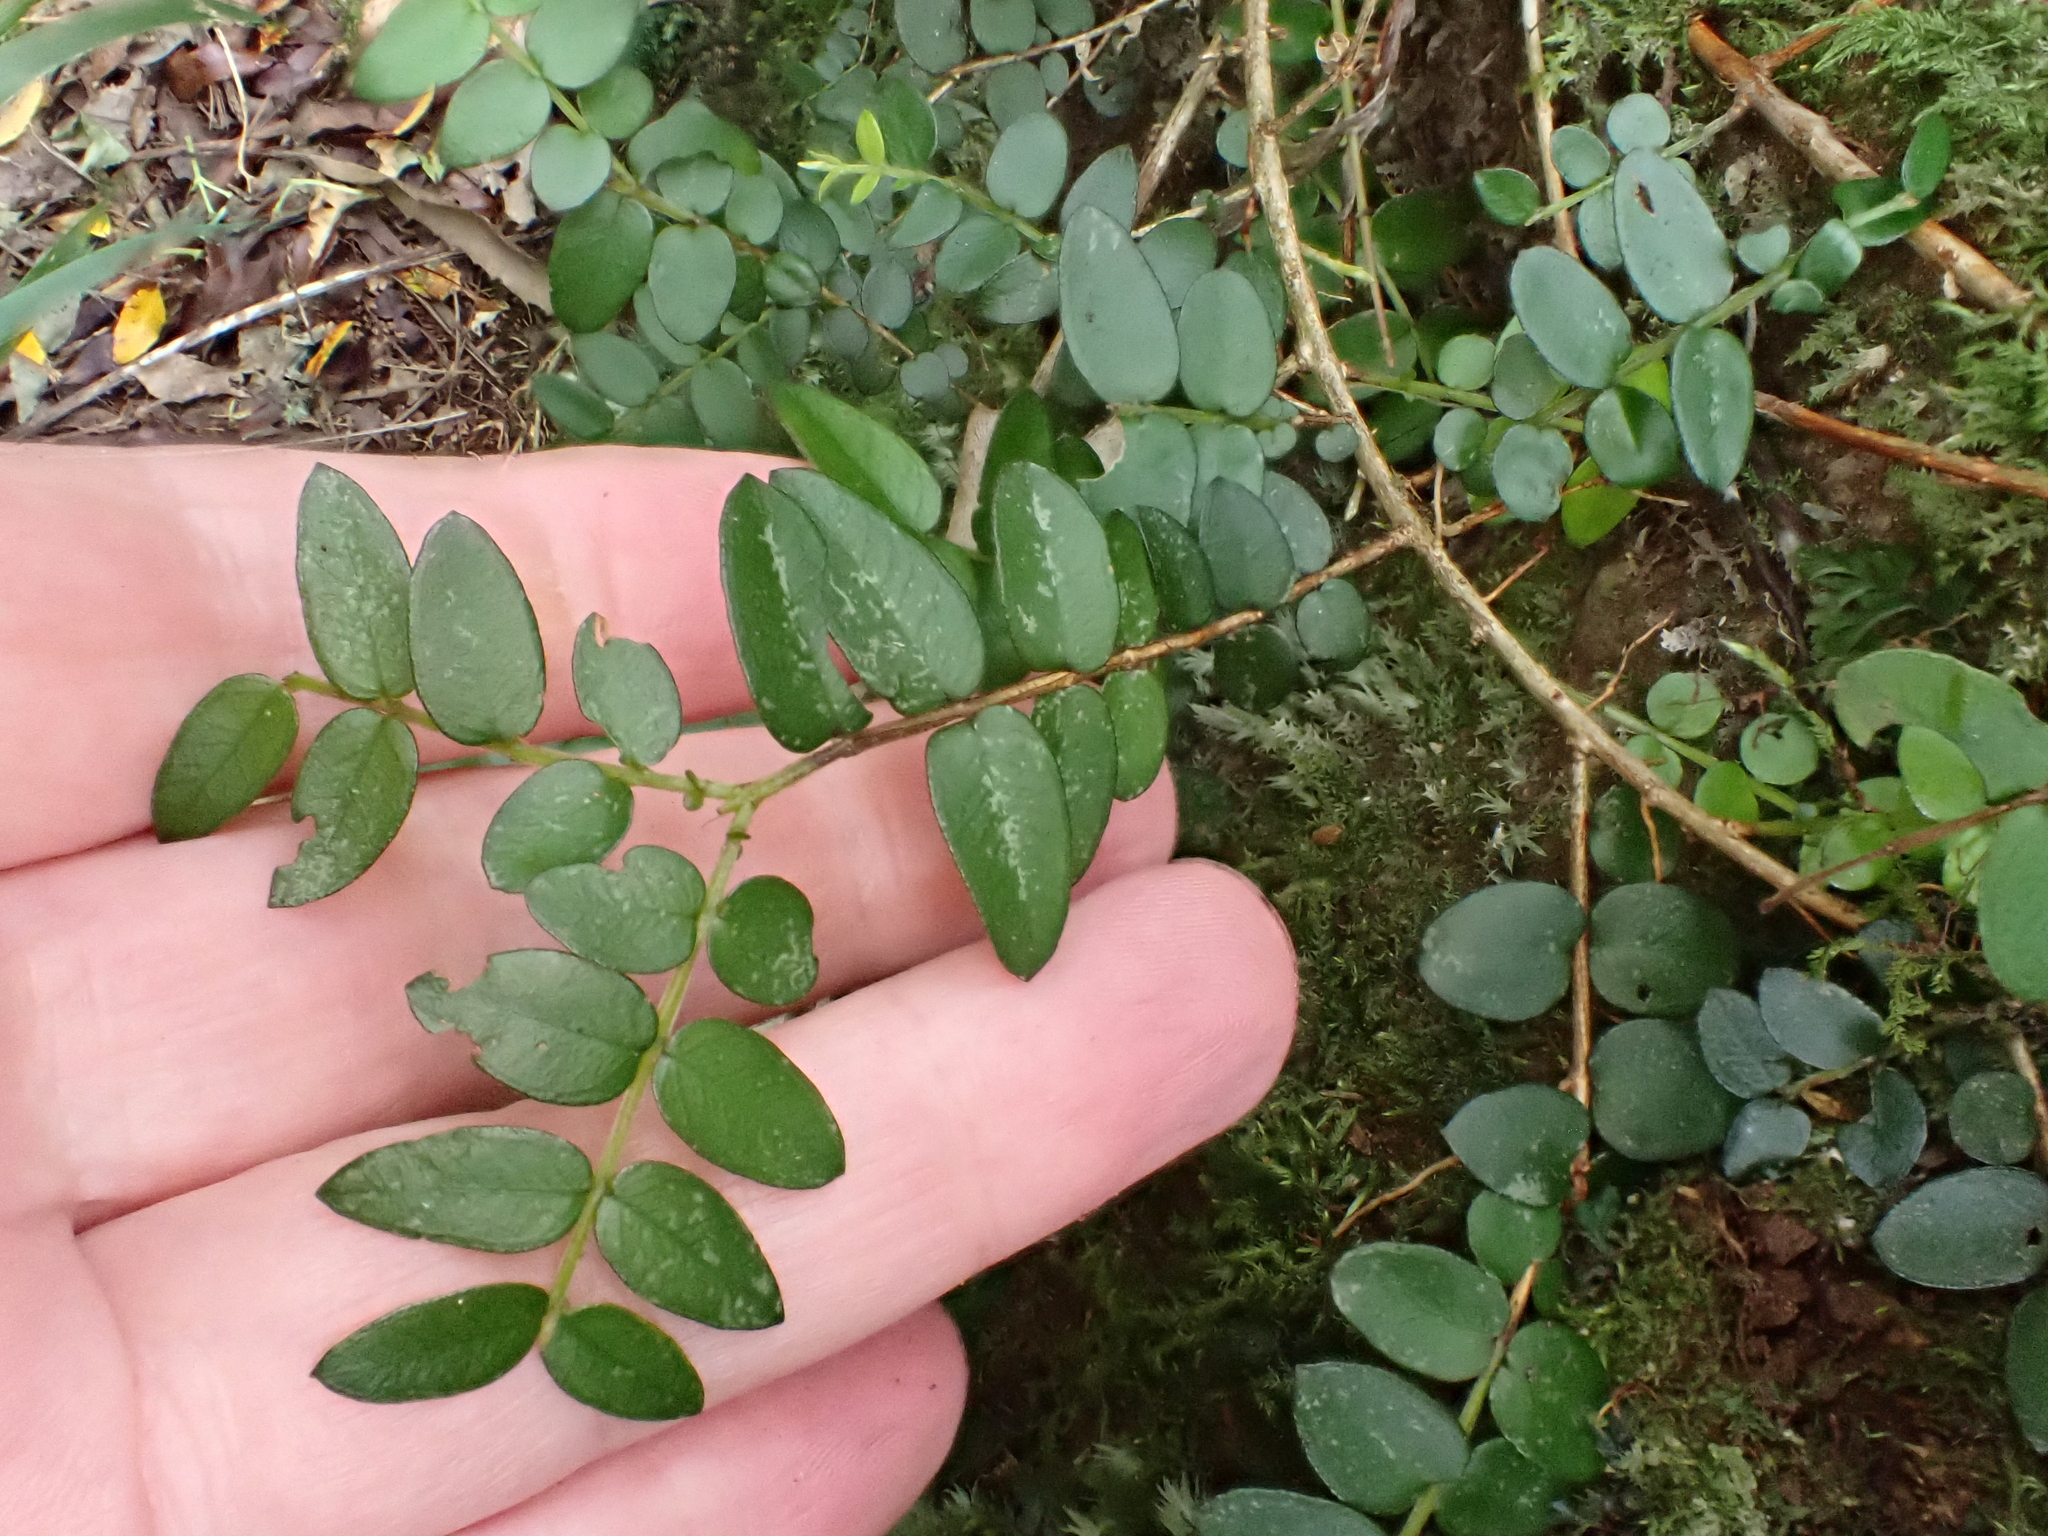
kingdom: Plantae
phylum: Tracheophyta
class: Magnoliopsida
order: Myrtales
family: Myrtaceae
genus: Metrosideros
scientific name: Metrosideros diffusa
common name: Small ratavine
